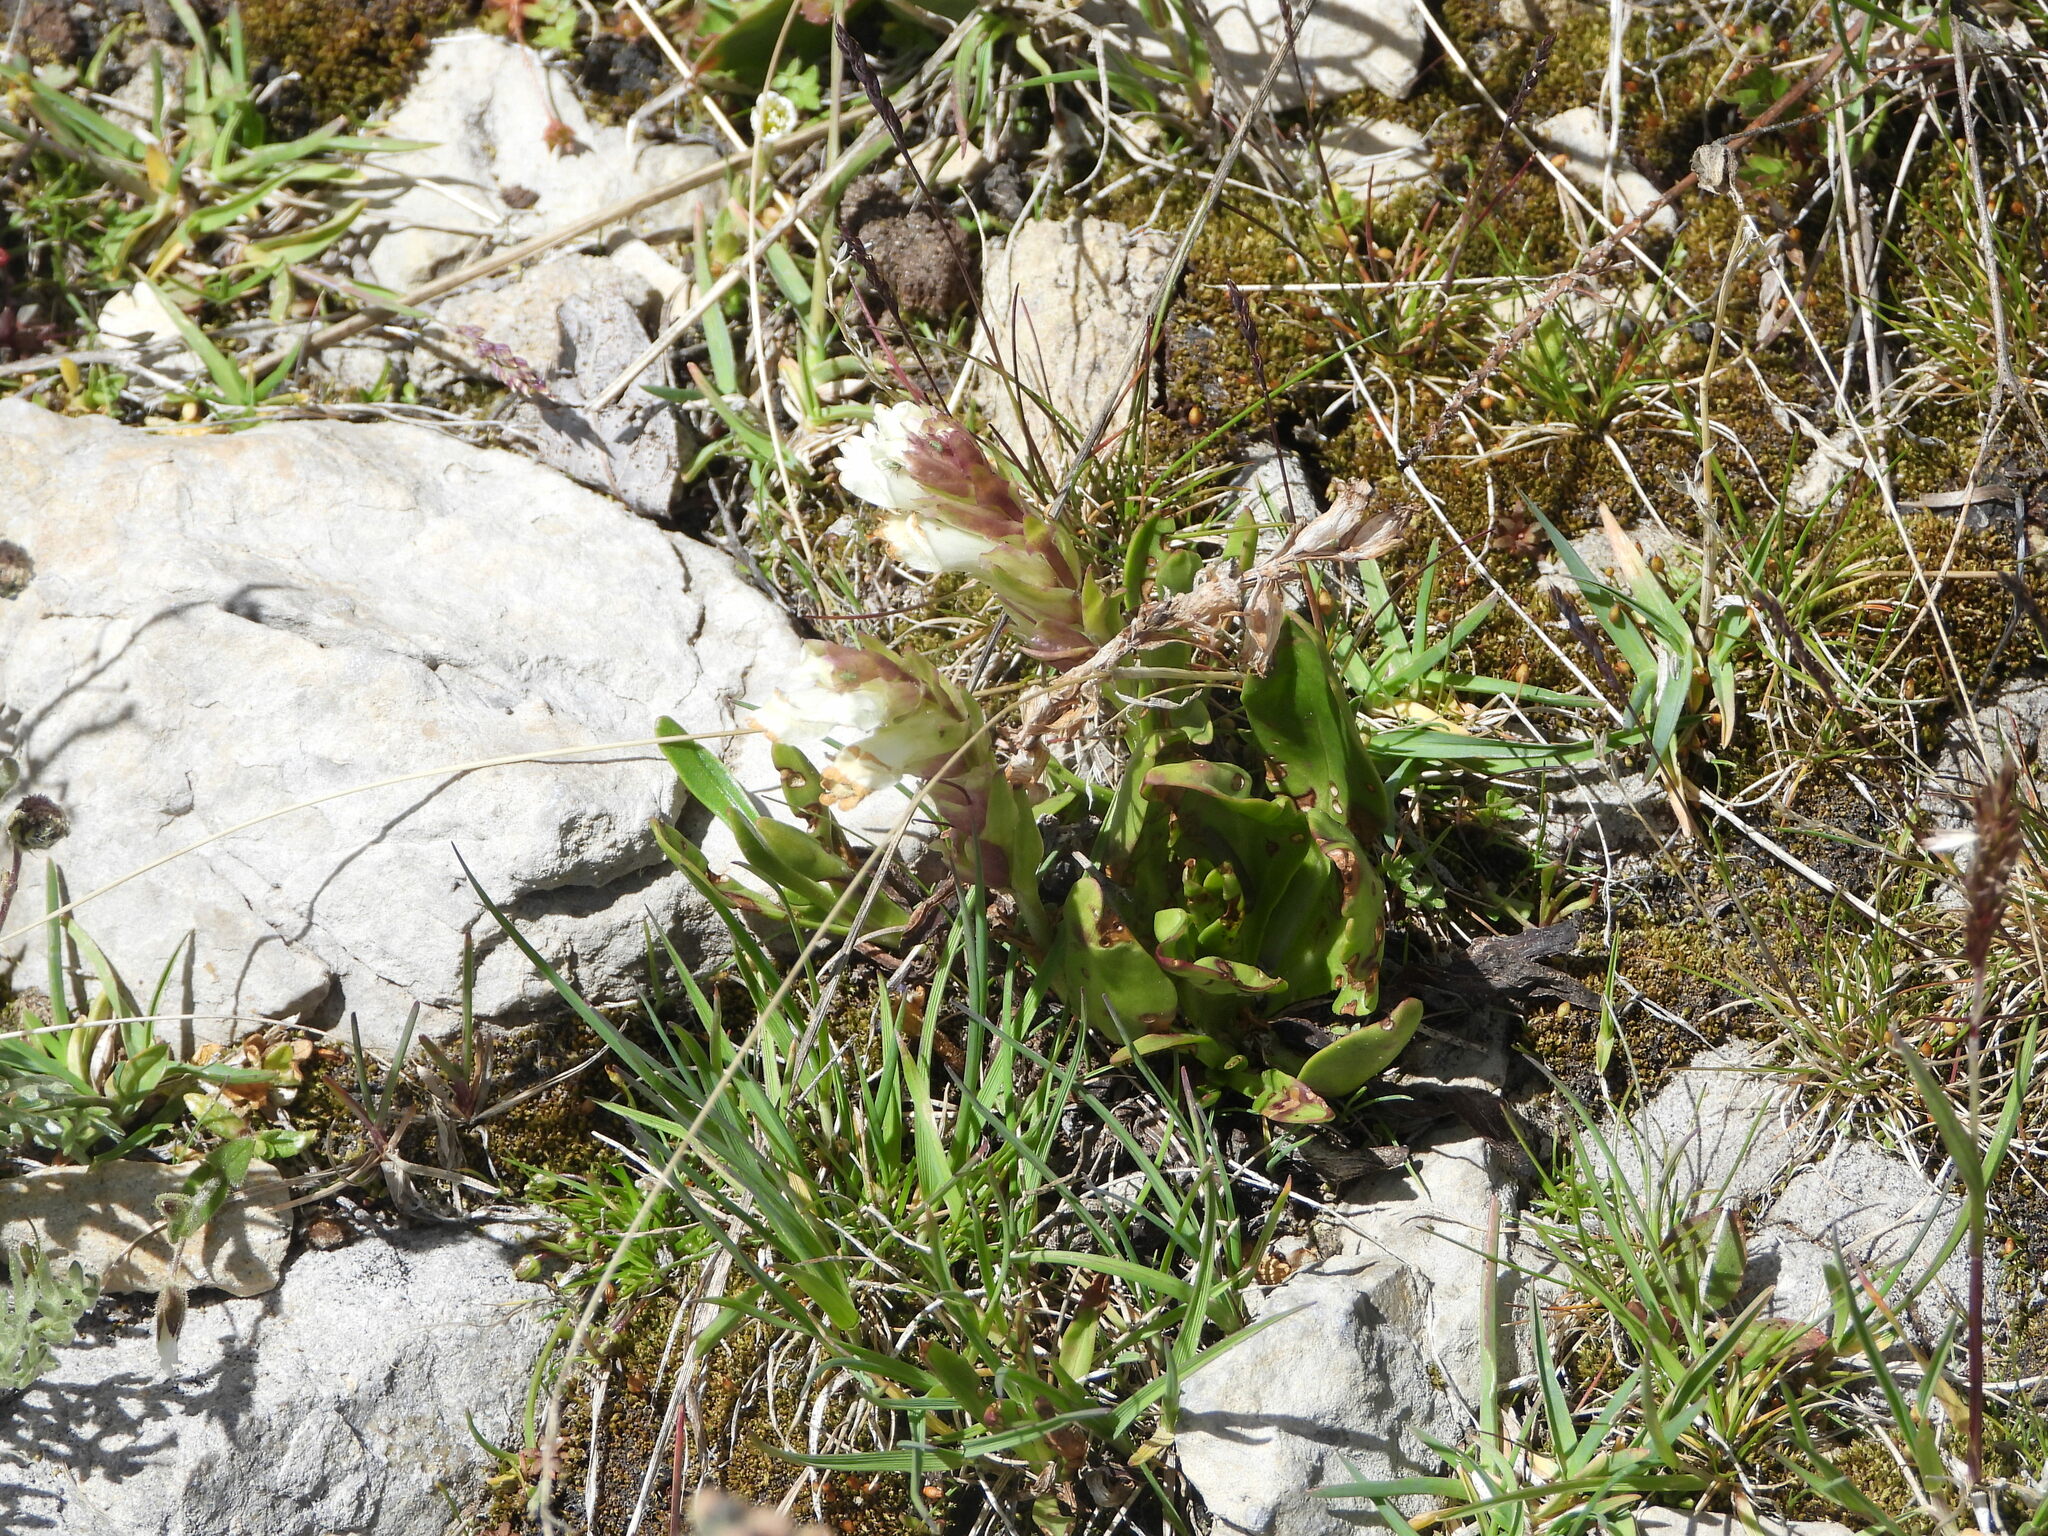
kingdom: Plantae
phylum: Tracheophyta
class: Magnoliopsida
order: Lamiales
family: Plantaginaceae
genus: Chionophila
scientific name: Chionophila jamesii
